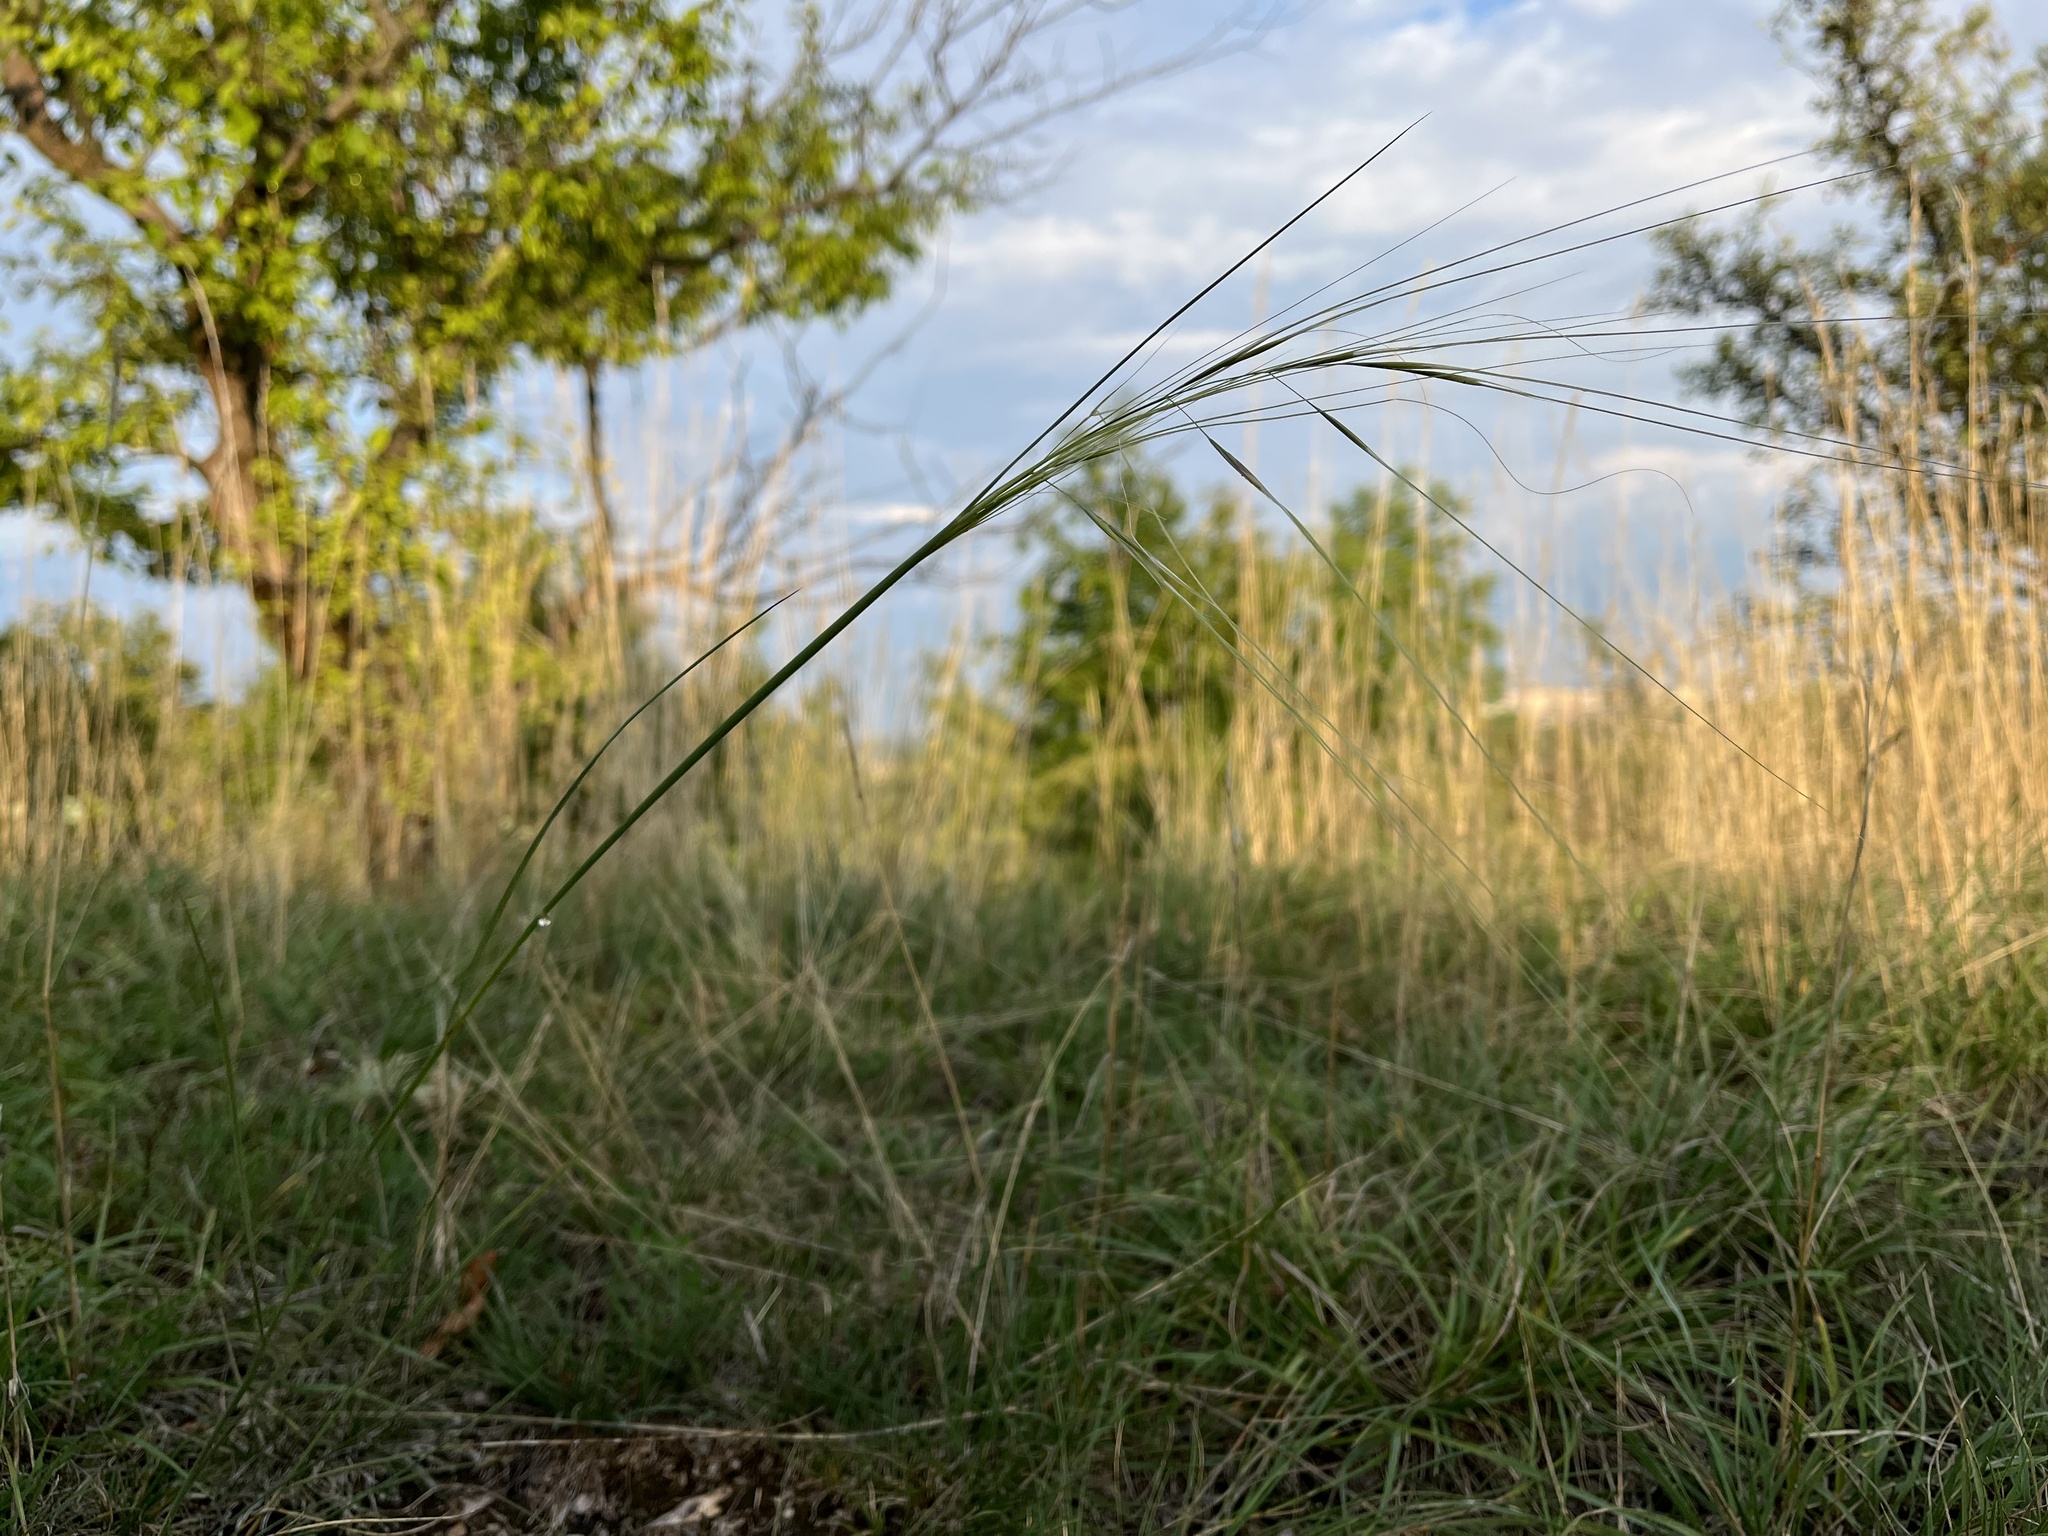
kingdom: Plantae
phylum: Tracheophyta
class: Liliopsida
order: Poales
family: Poaceae
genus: Stipa
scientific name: Stipa capillata
